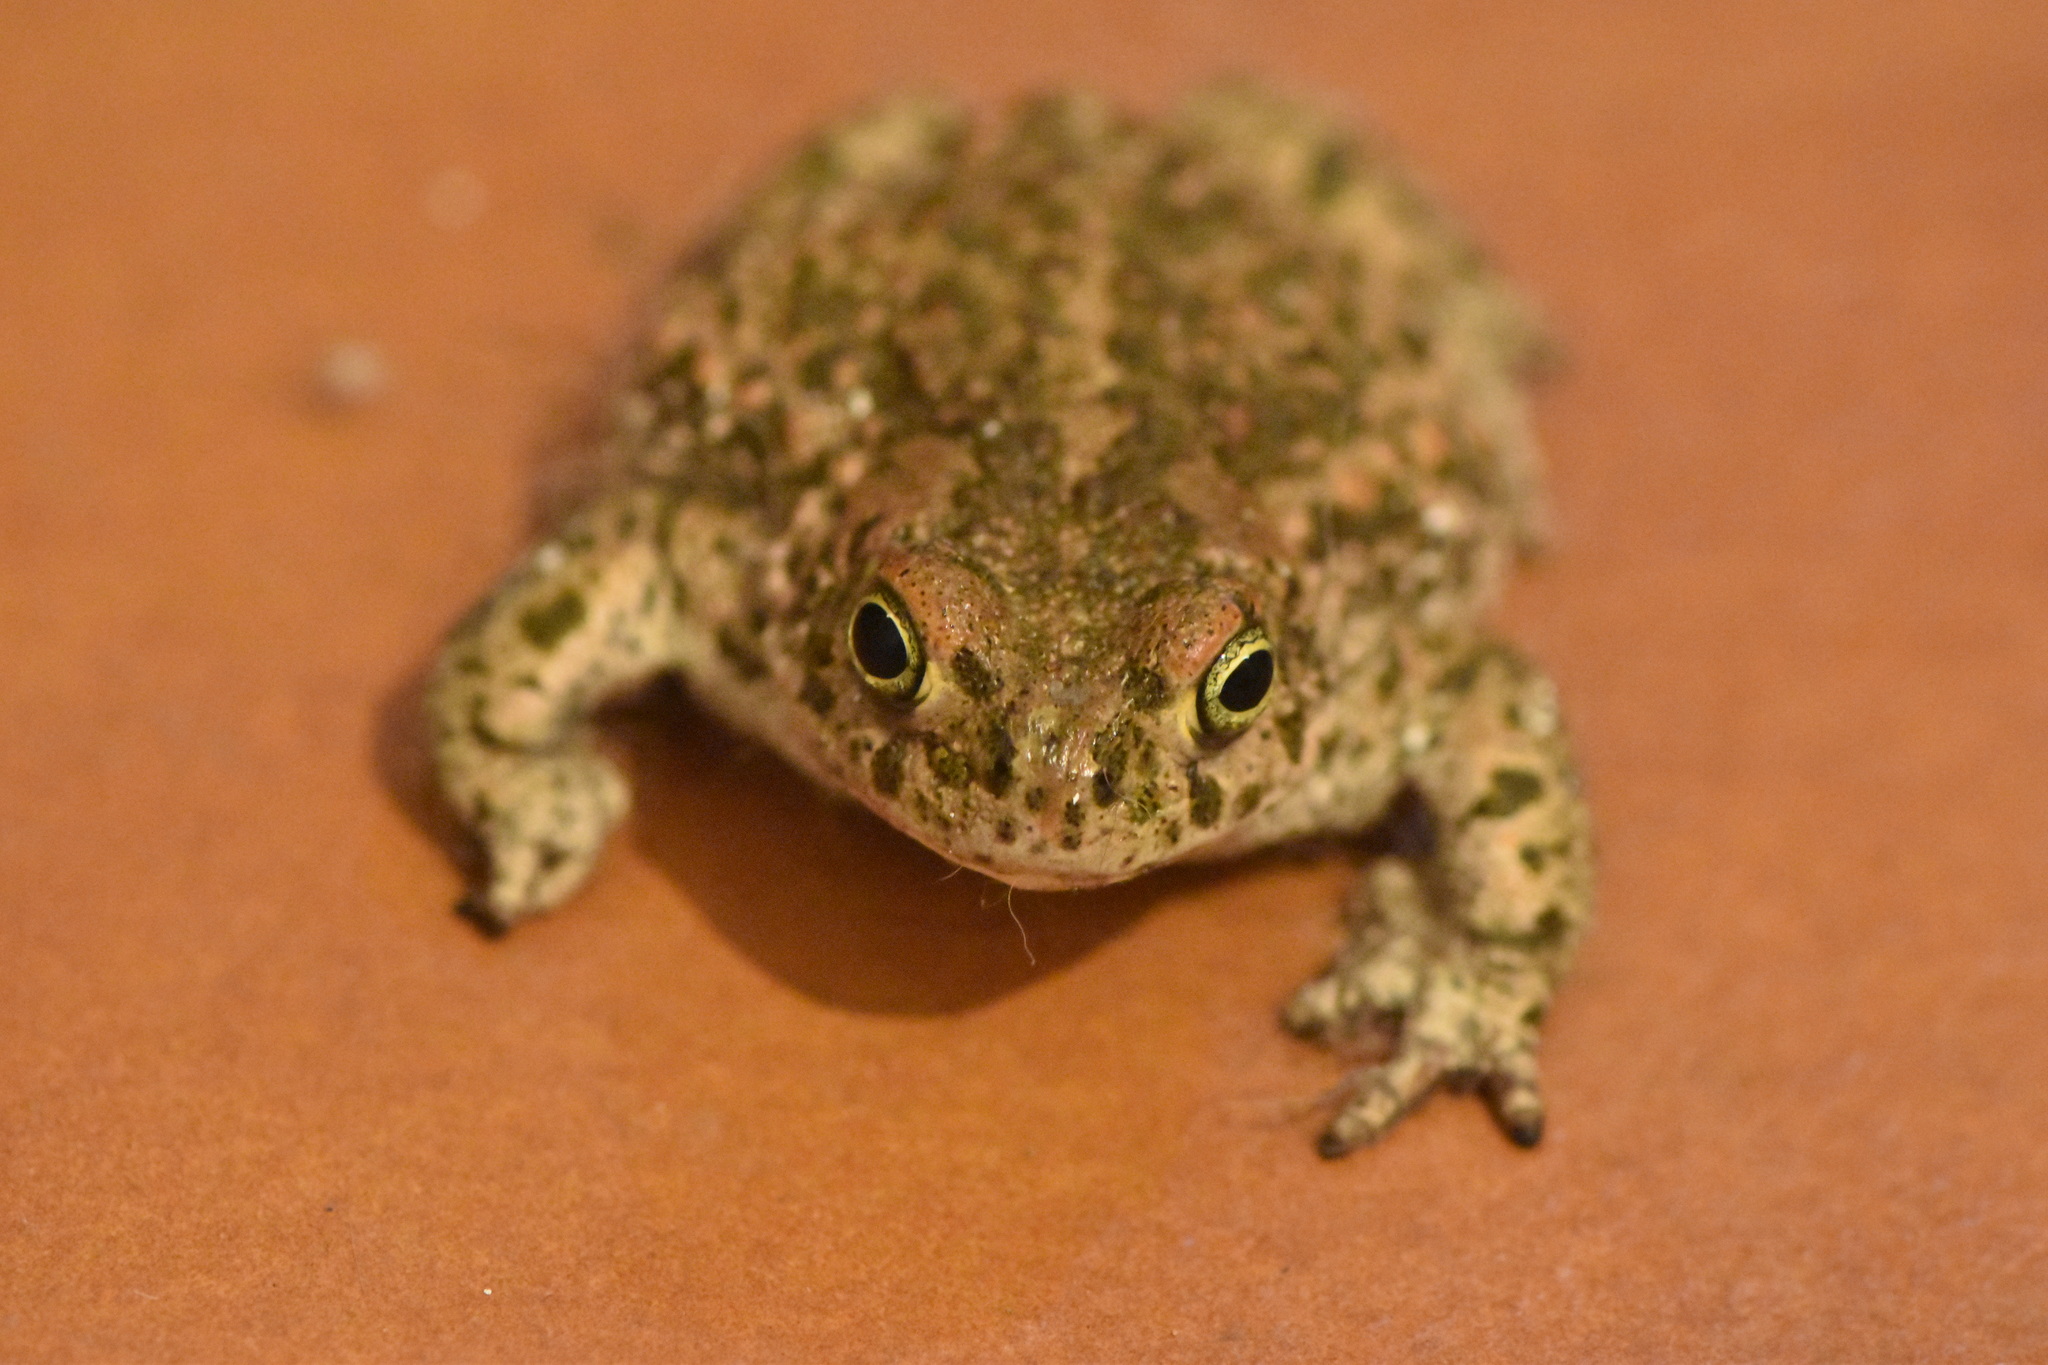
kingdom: Animalia
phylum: Chordata
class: Amphibia
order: Anura
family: Bufonidae
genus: Epidalea
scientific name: Epidalea calamita
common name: Natterjack toad
